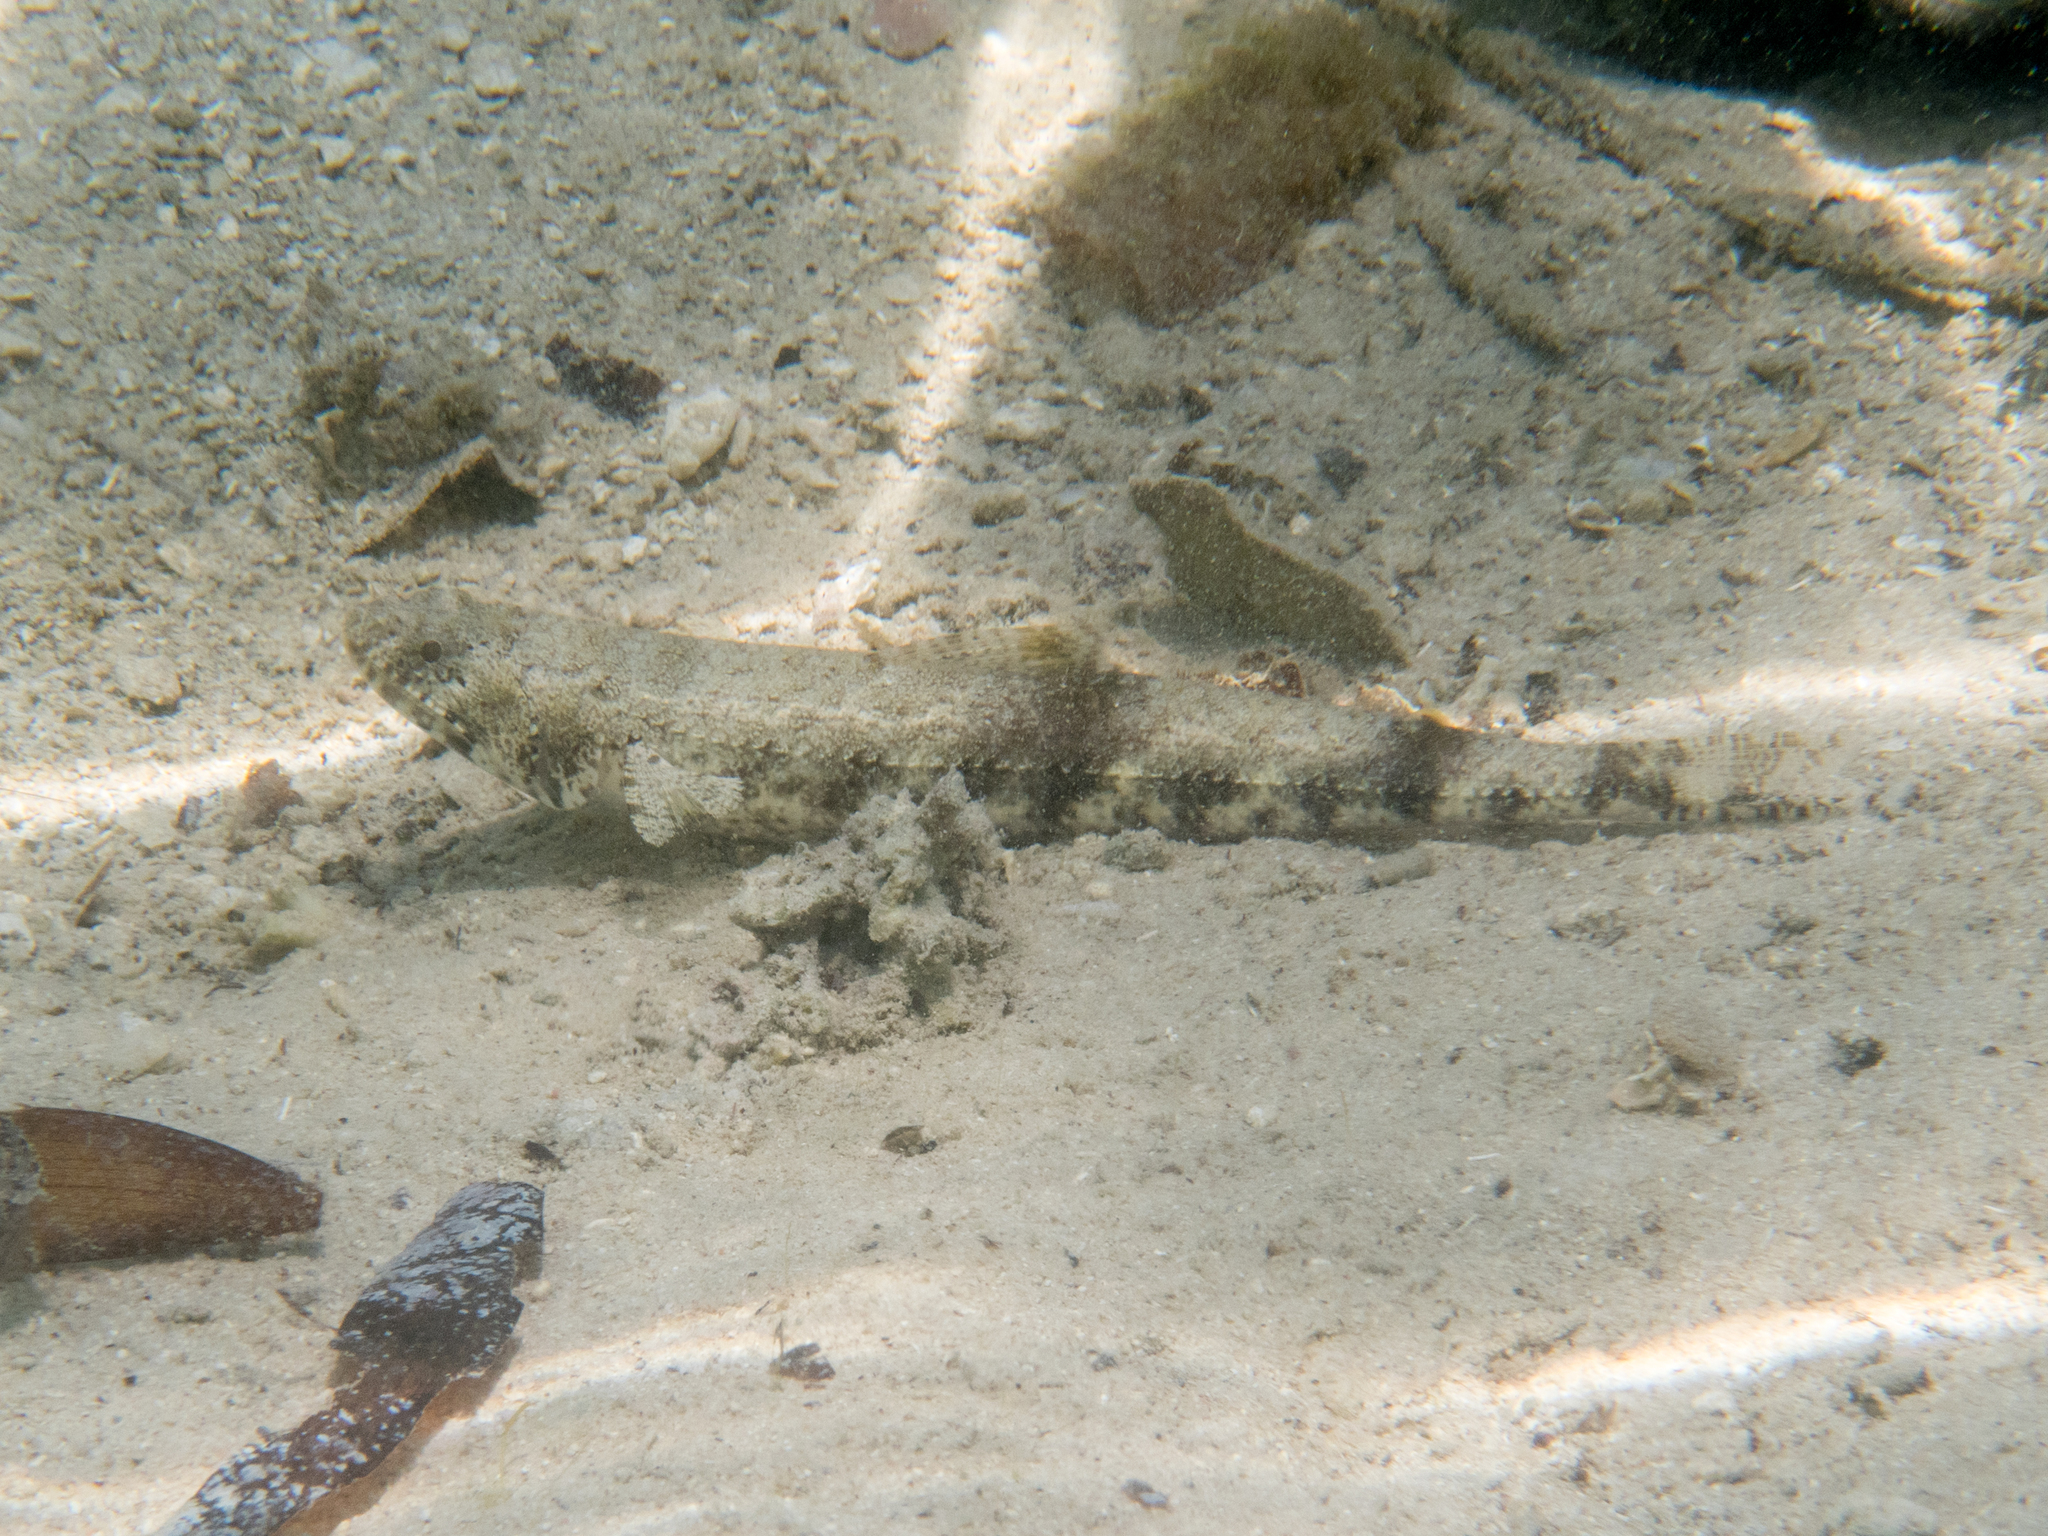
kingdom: Animalia
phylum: Chordata
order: Aulopiformes
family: Synodontidae
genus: Saurida
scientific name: Saurida gracilis
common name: Slender lizardfish
